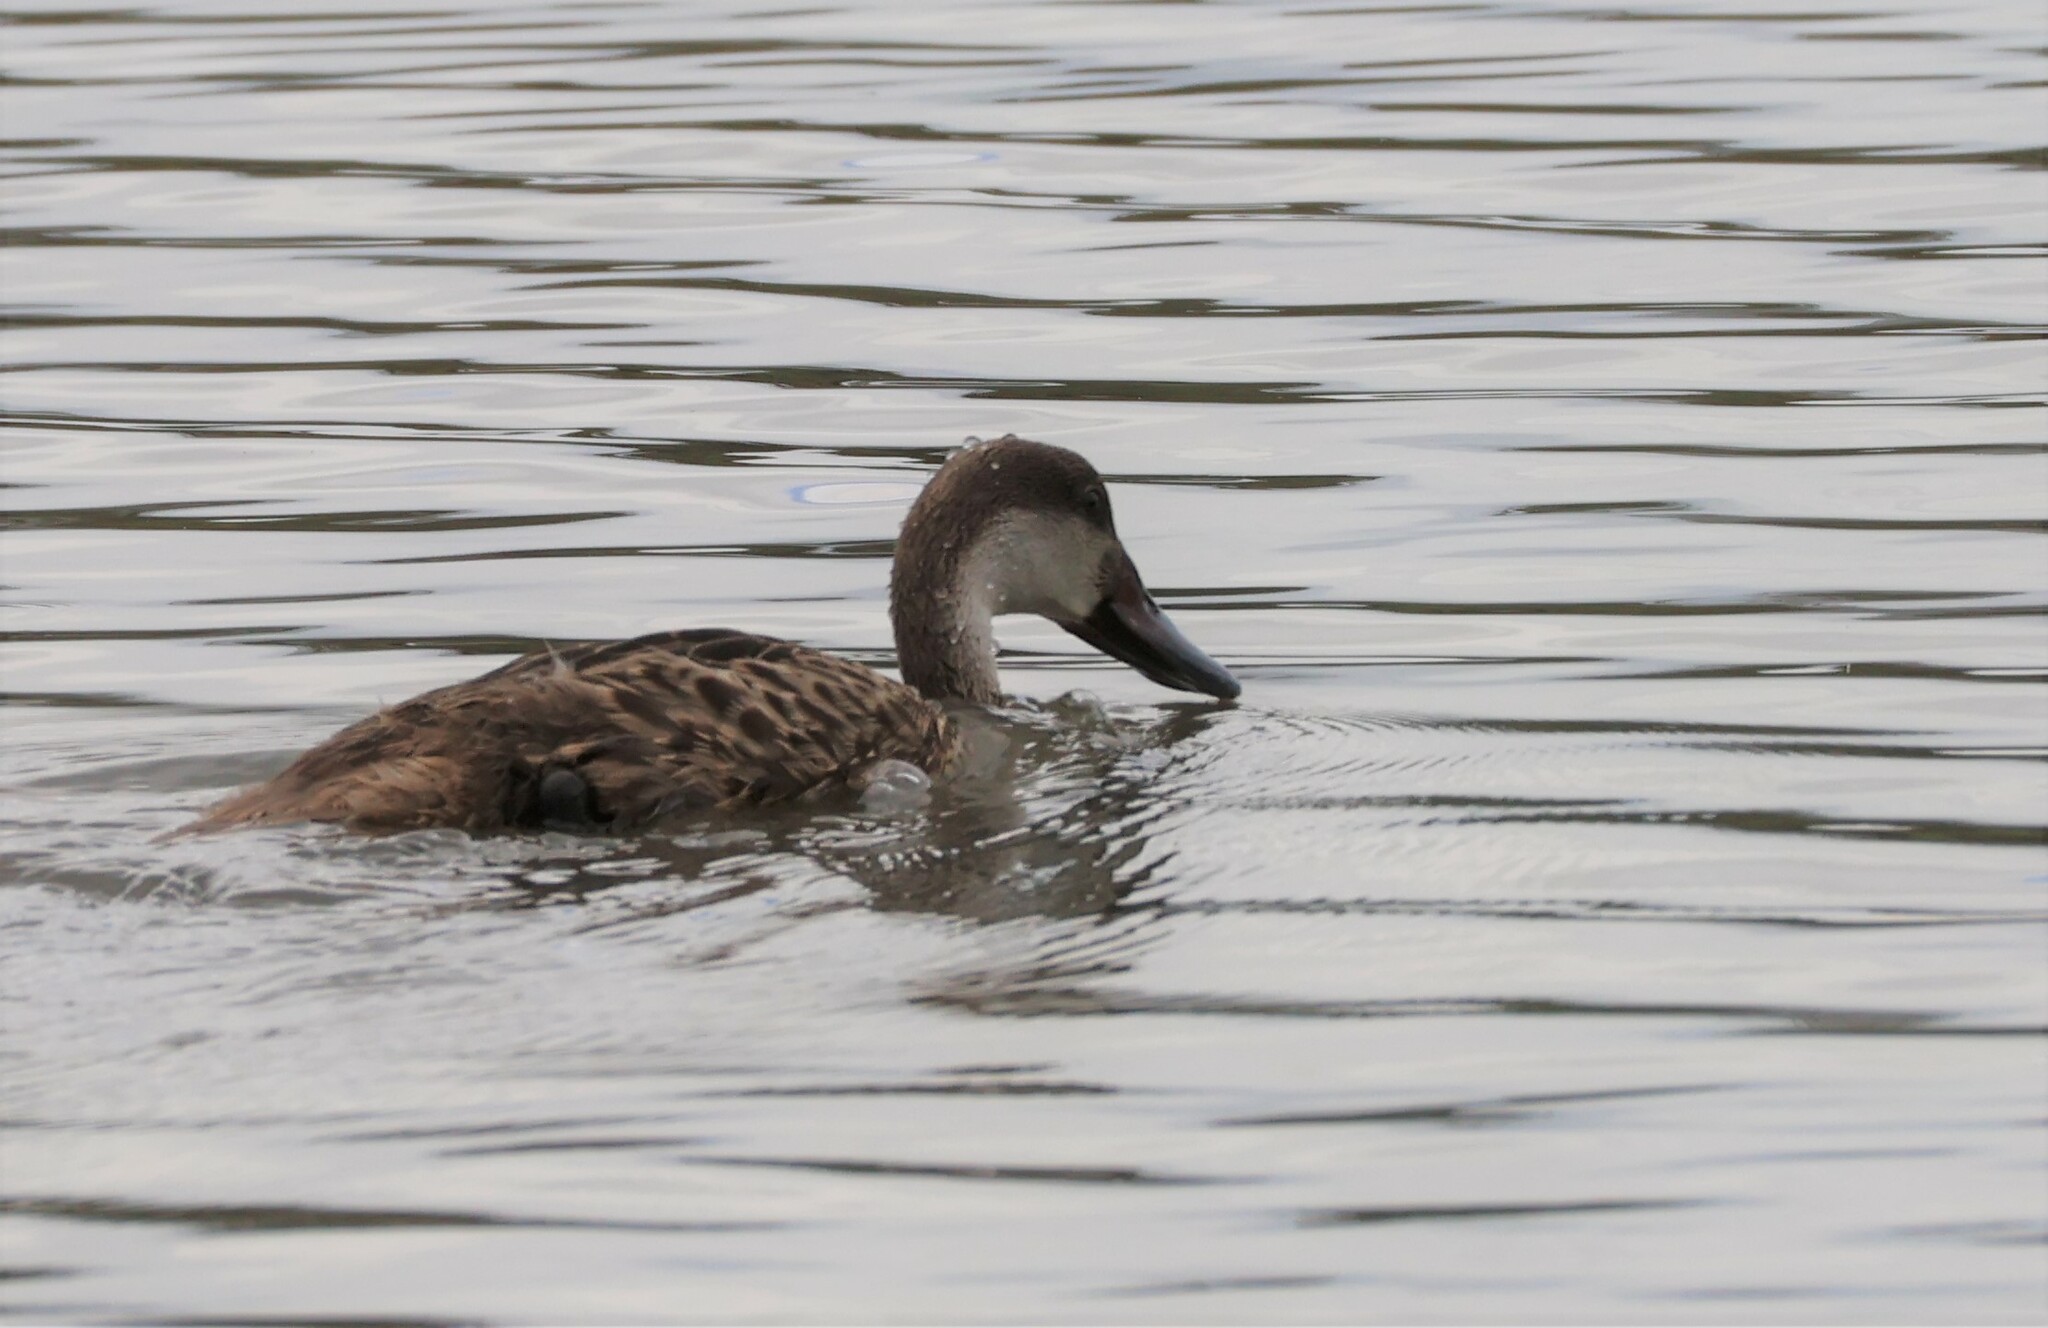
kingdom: Animalia
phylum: Chordata
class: Aves
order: Anseriformes
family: Anatidae
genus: Anas
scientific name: Anas bahamensis
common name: White-cheeked pintail
